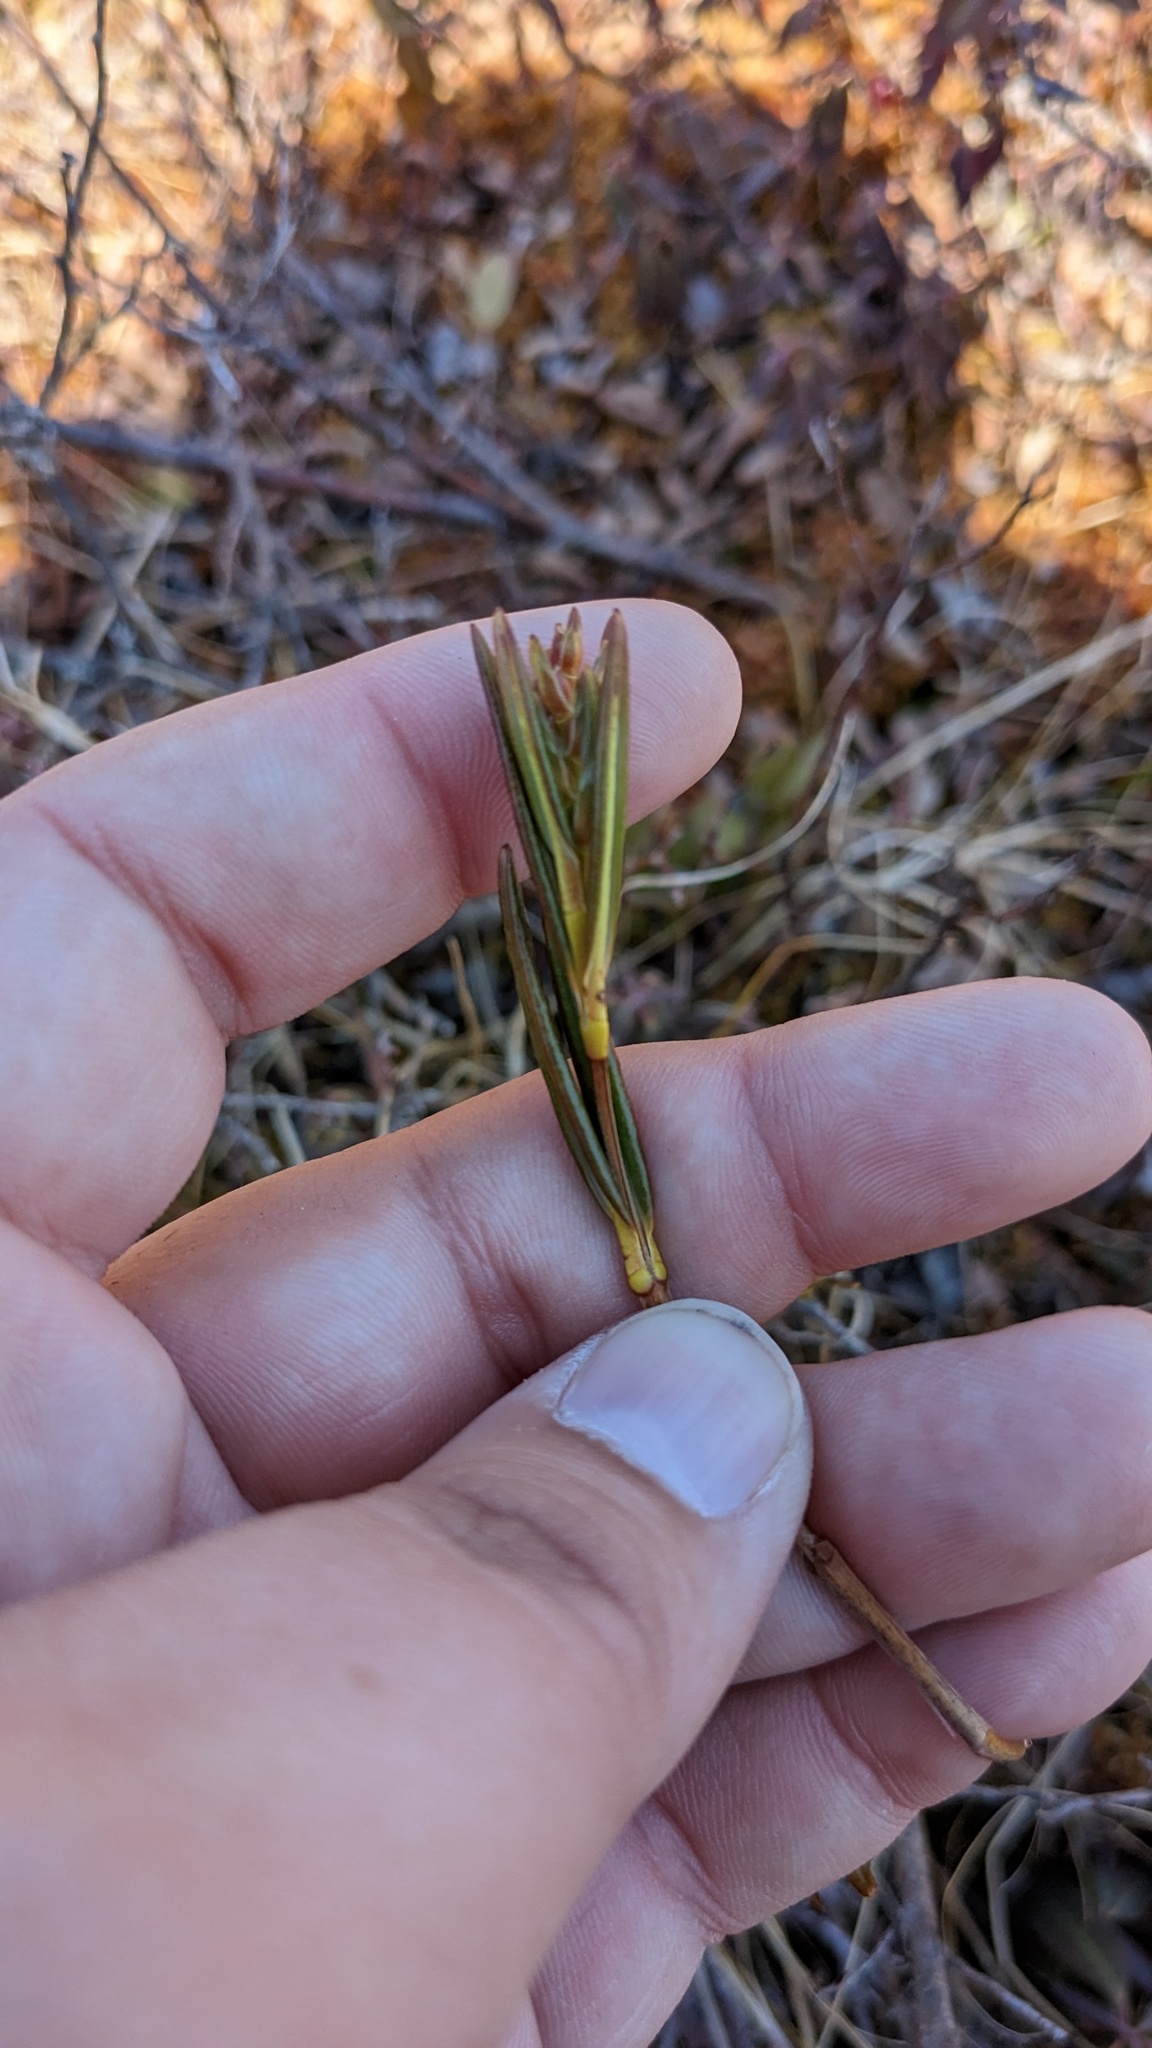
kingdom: Plantae
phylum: Tracheophyta
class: Magnoliopsida
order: Ericales
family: Ericaceae
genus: Kalmia
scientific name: Kalmia polifolia
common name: Bog-laurel
